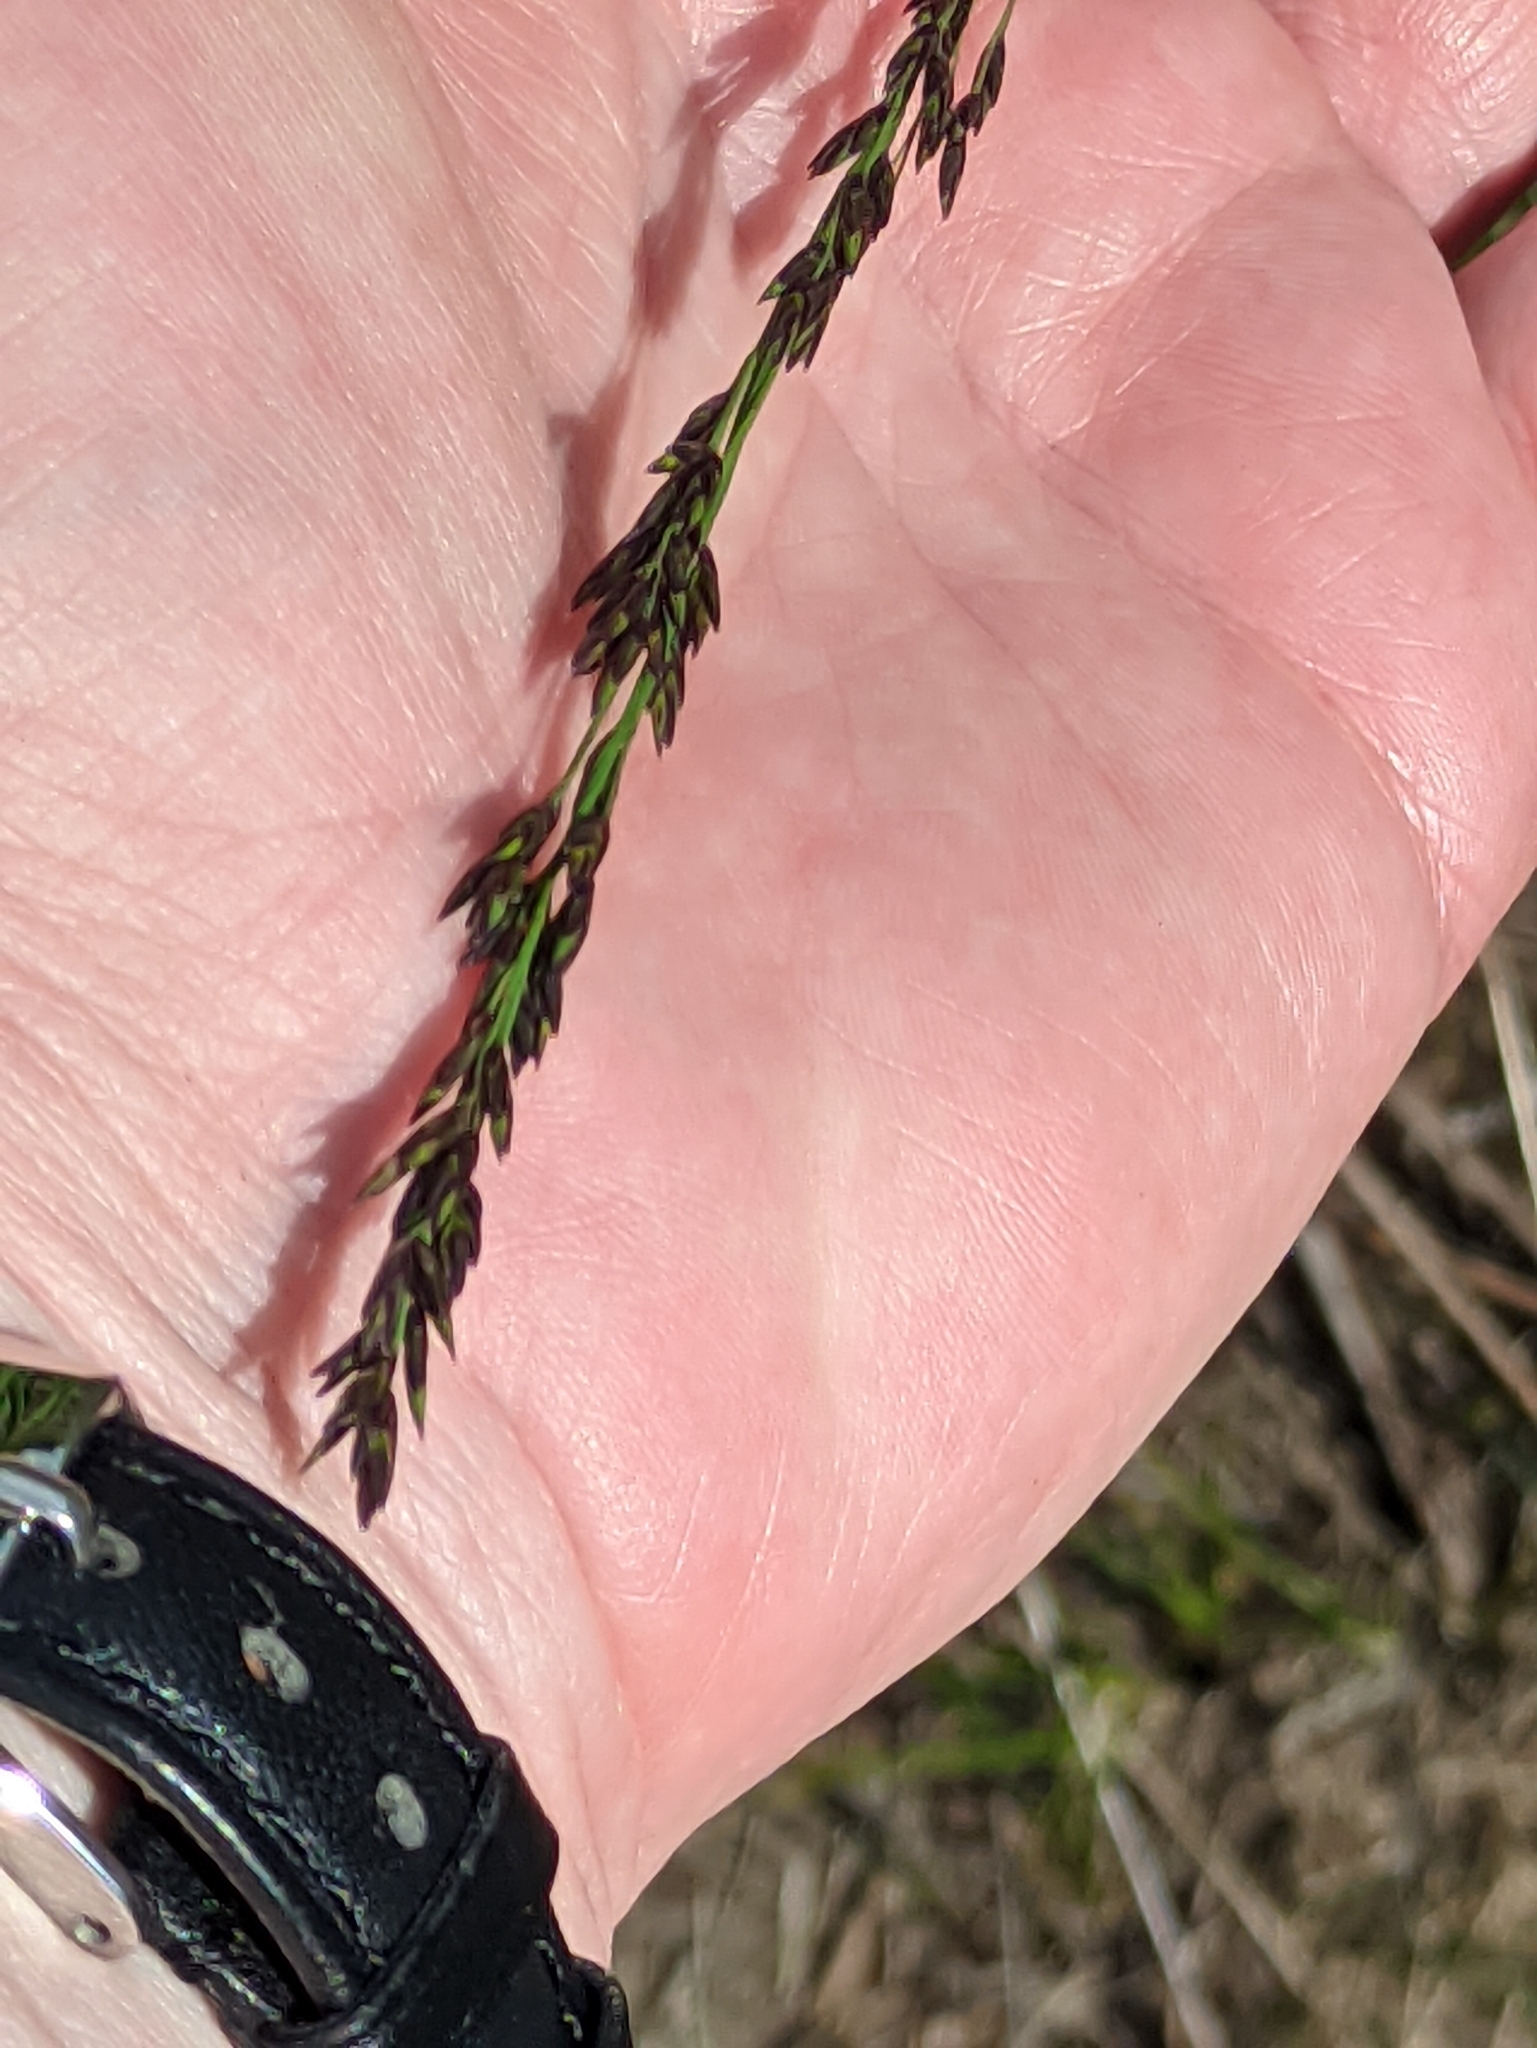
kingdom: Plantae
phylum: Tracheophyta
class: Liliopsida
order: Poales
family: Poaceae
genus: Molinia
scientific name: Molinia caerulea
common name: Purple moor-grass
